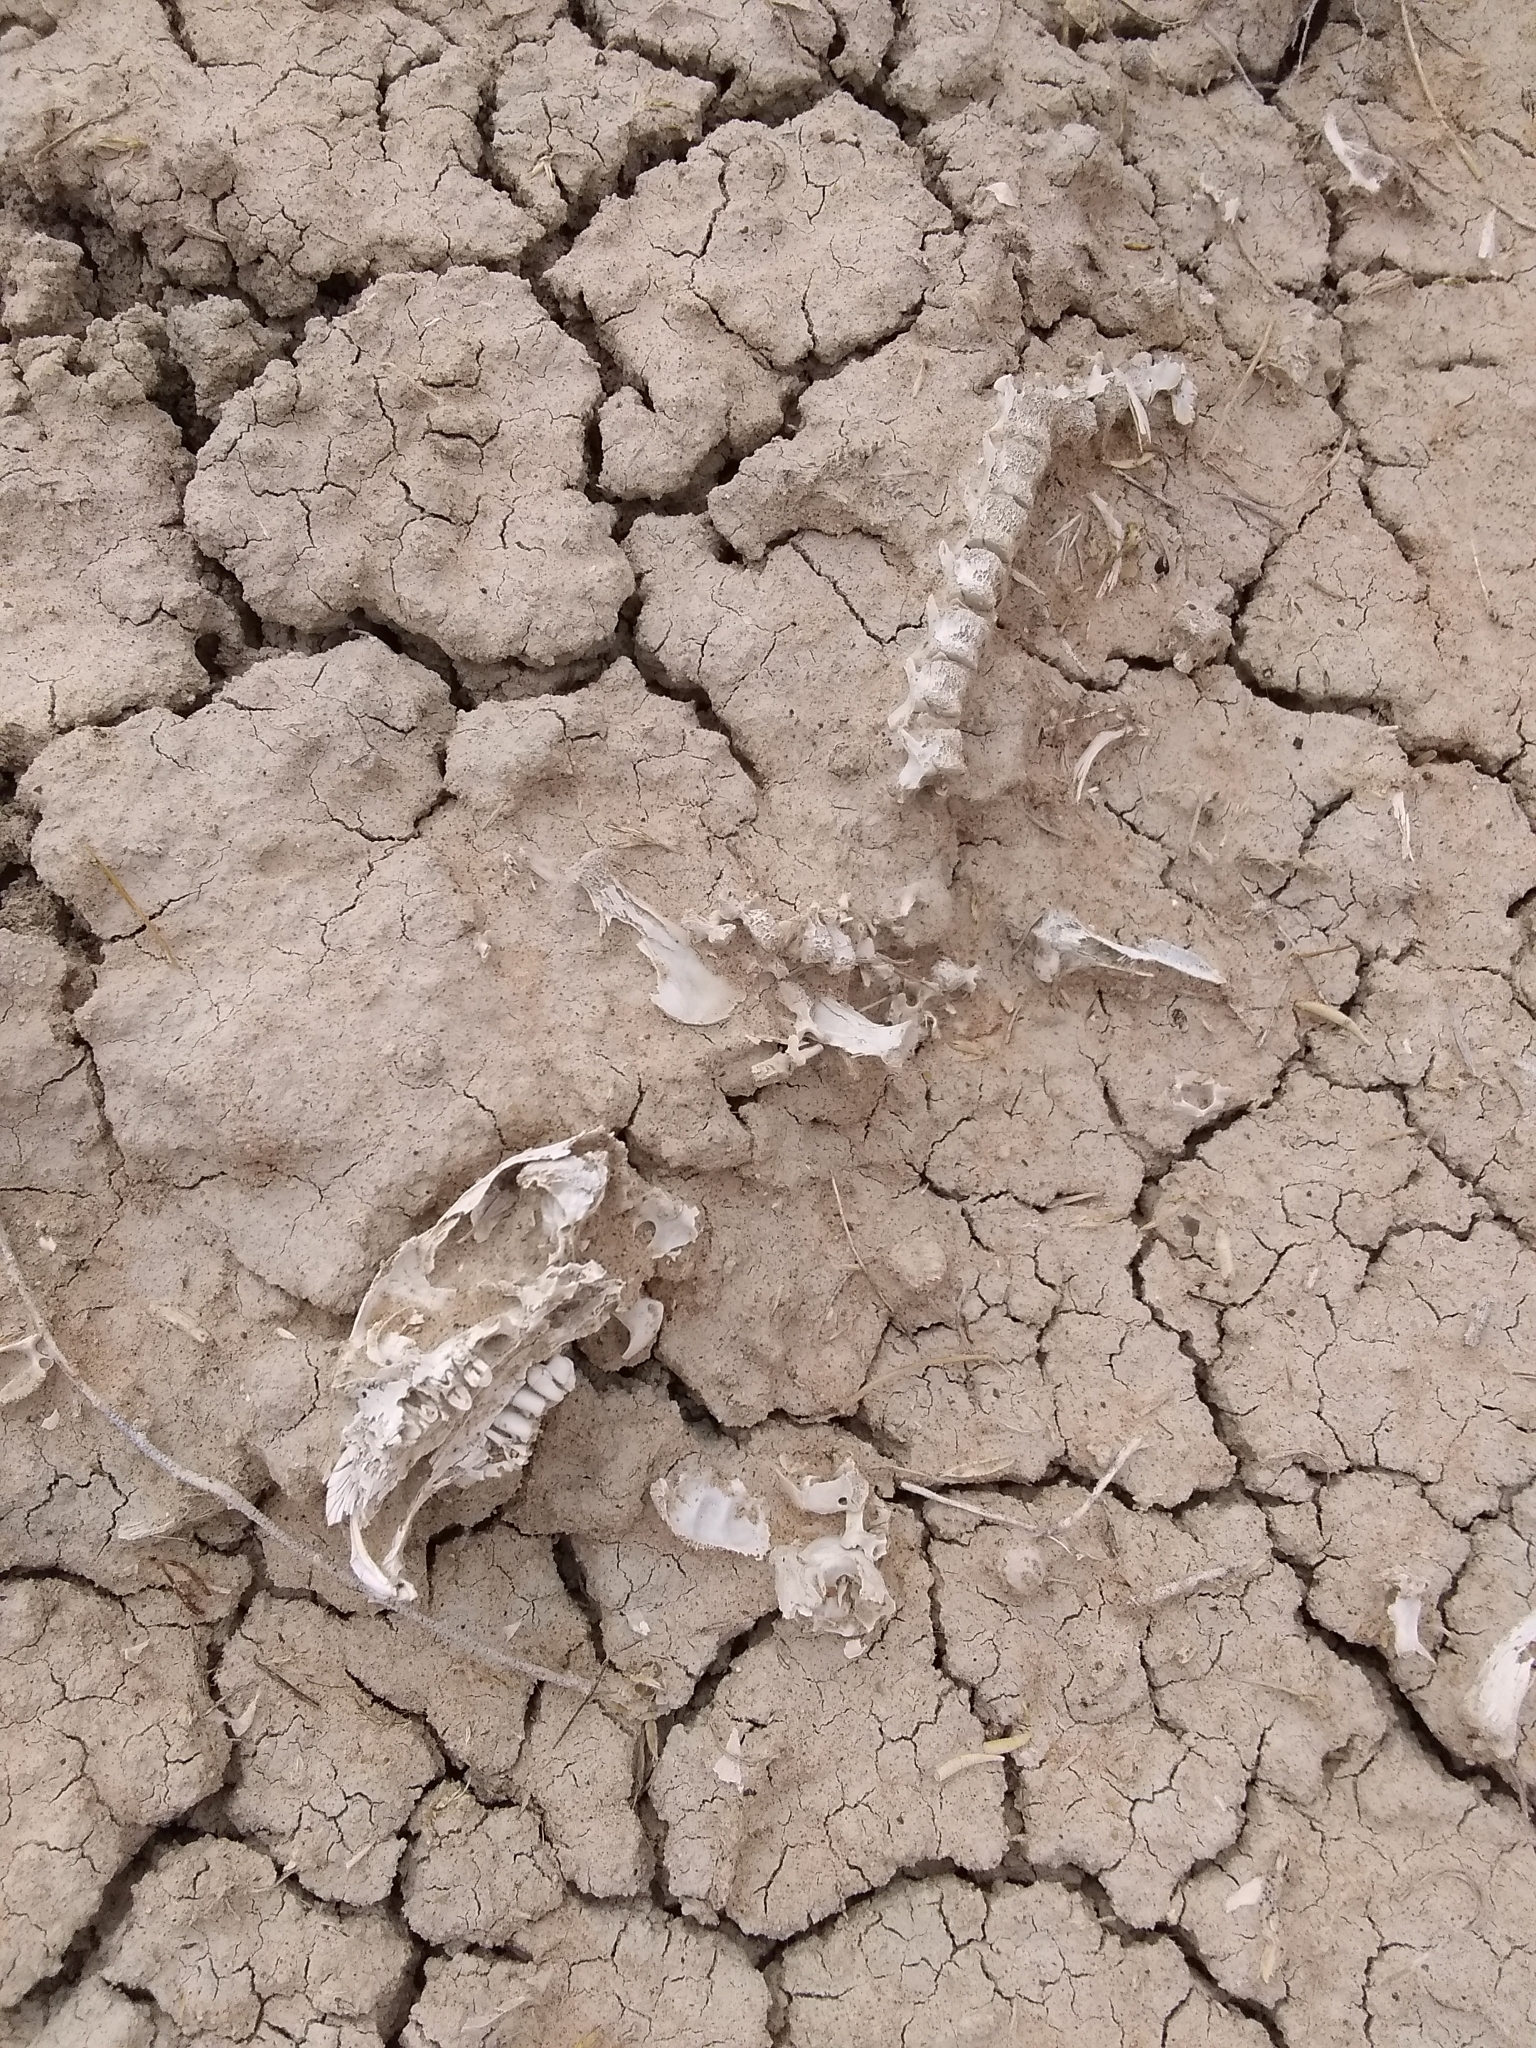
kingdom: Animalia
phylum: Chordata
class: Mammalia
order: Rodentia
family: Sciuridae
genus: Cynomys
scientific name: Cynomys leucurus
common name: White-tailed prairie dog
